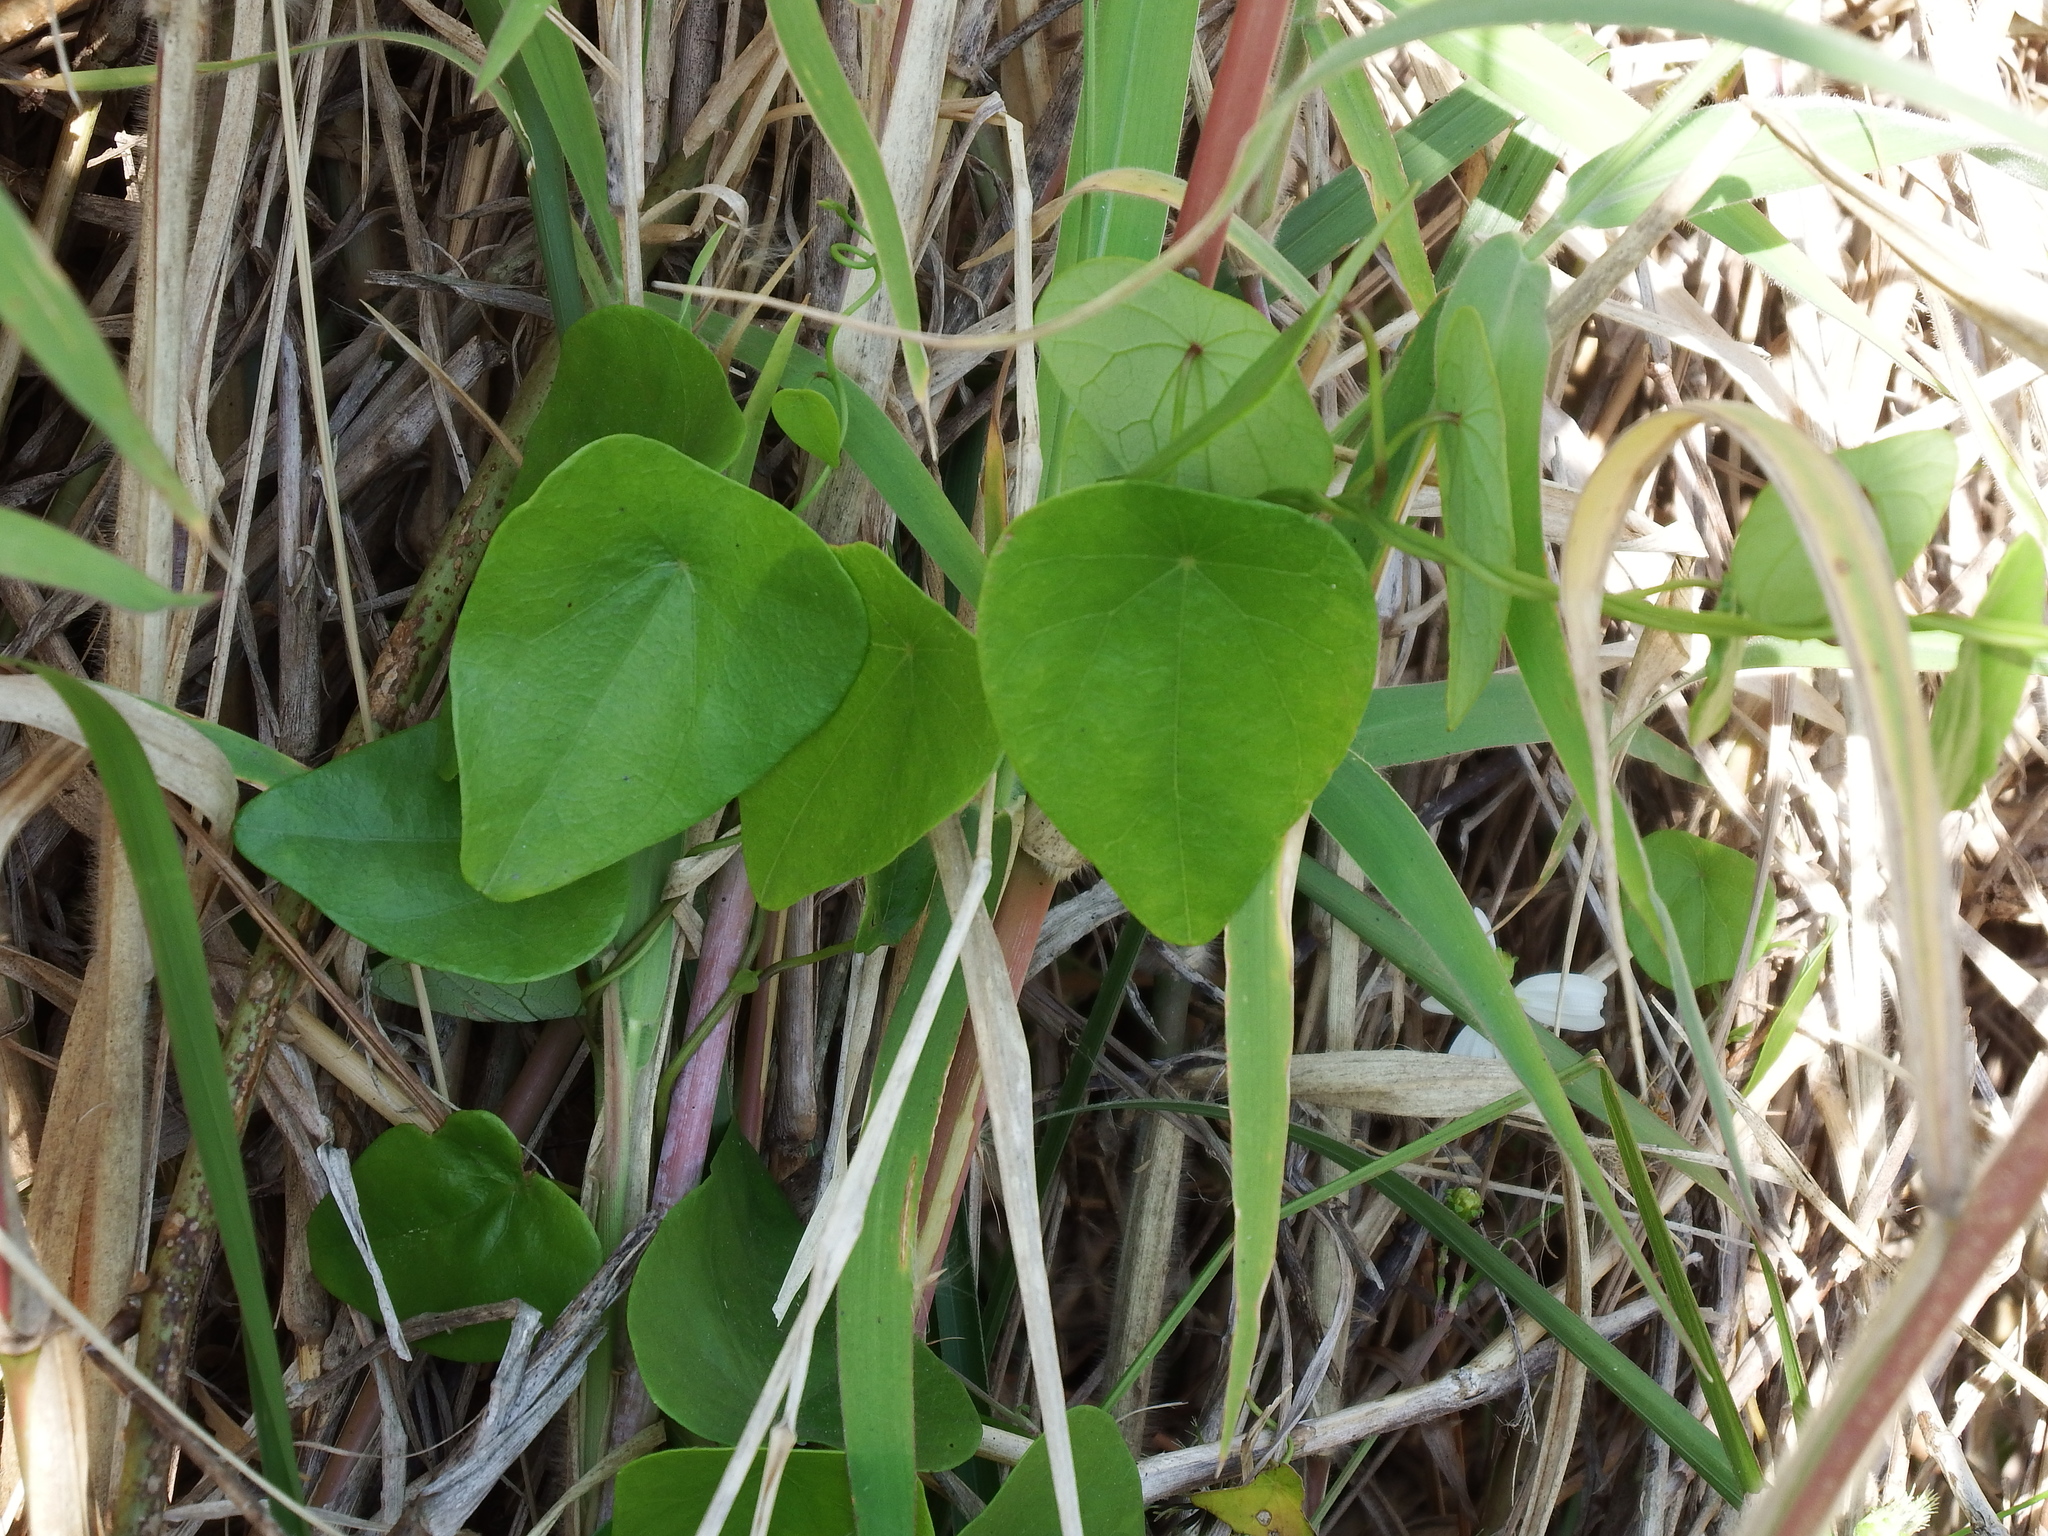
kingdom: Plantae
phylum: Tracheophyta
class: Magnoliopsida
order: Ranunculales
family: Menispermaceae
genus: Stephania
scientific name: Stephania japonica
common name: Snake vine
